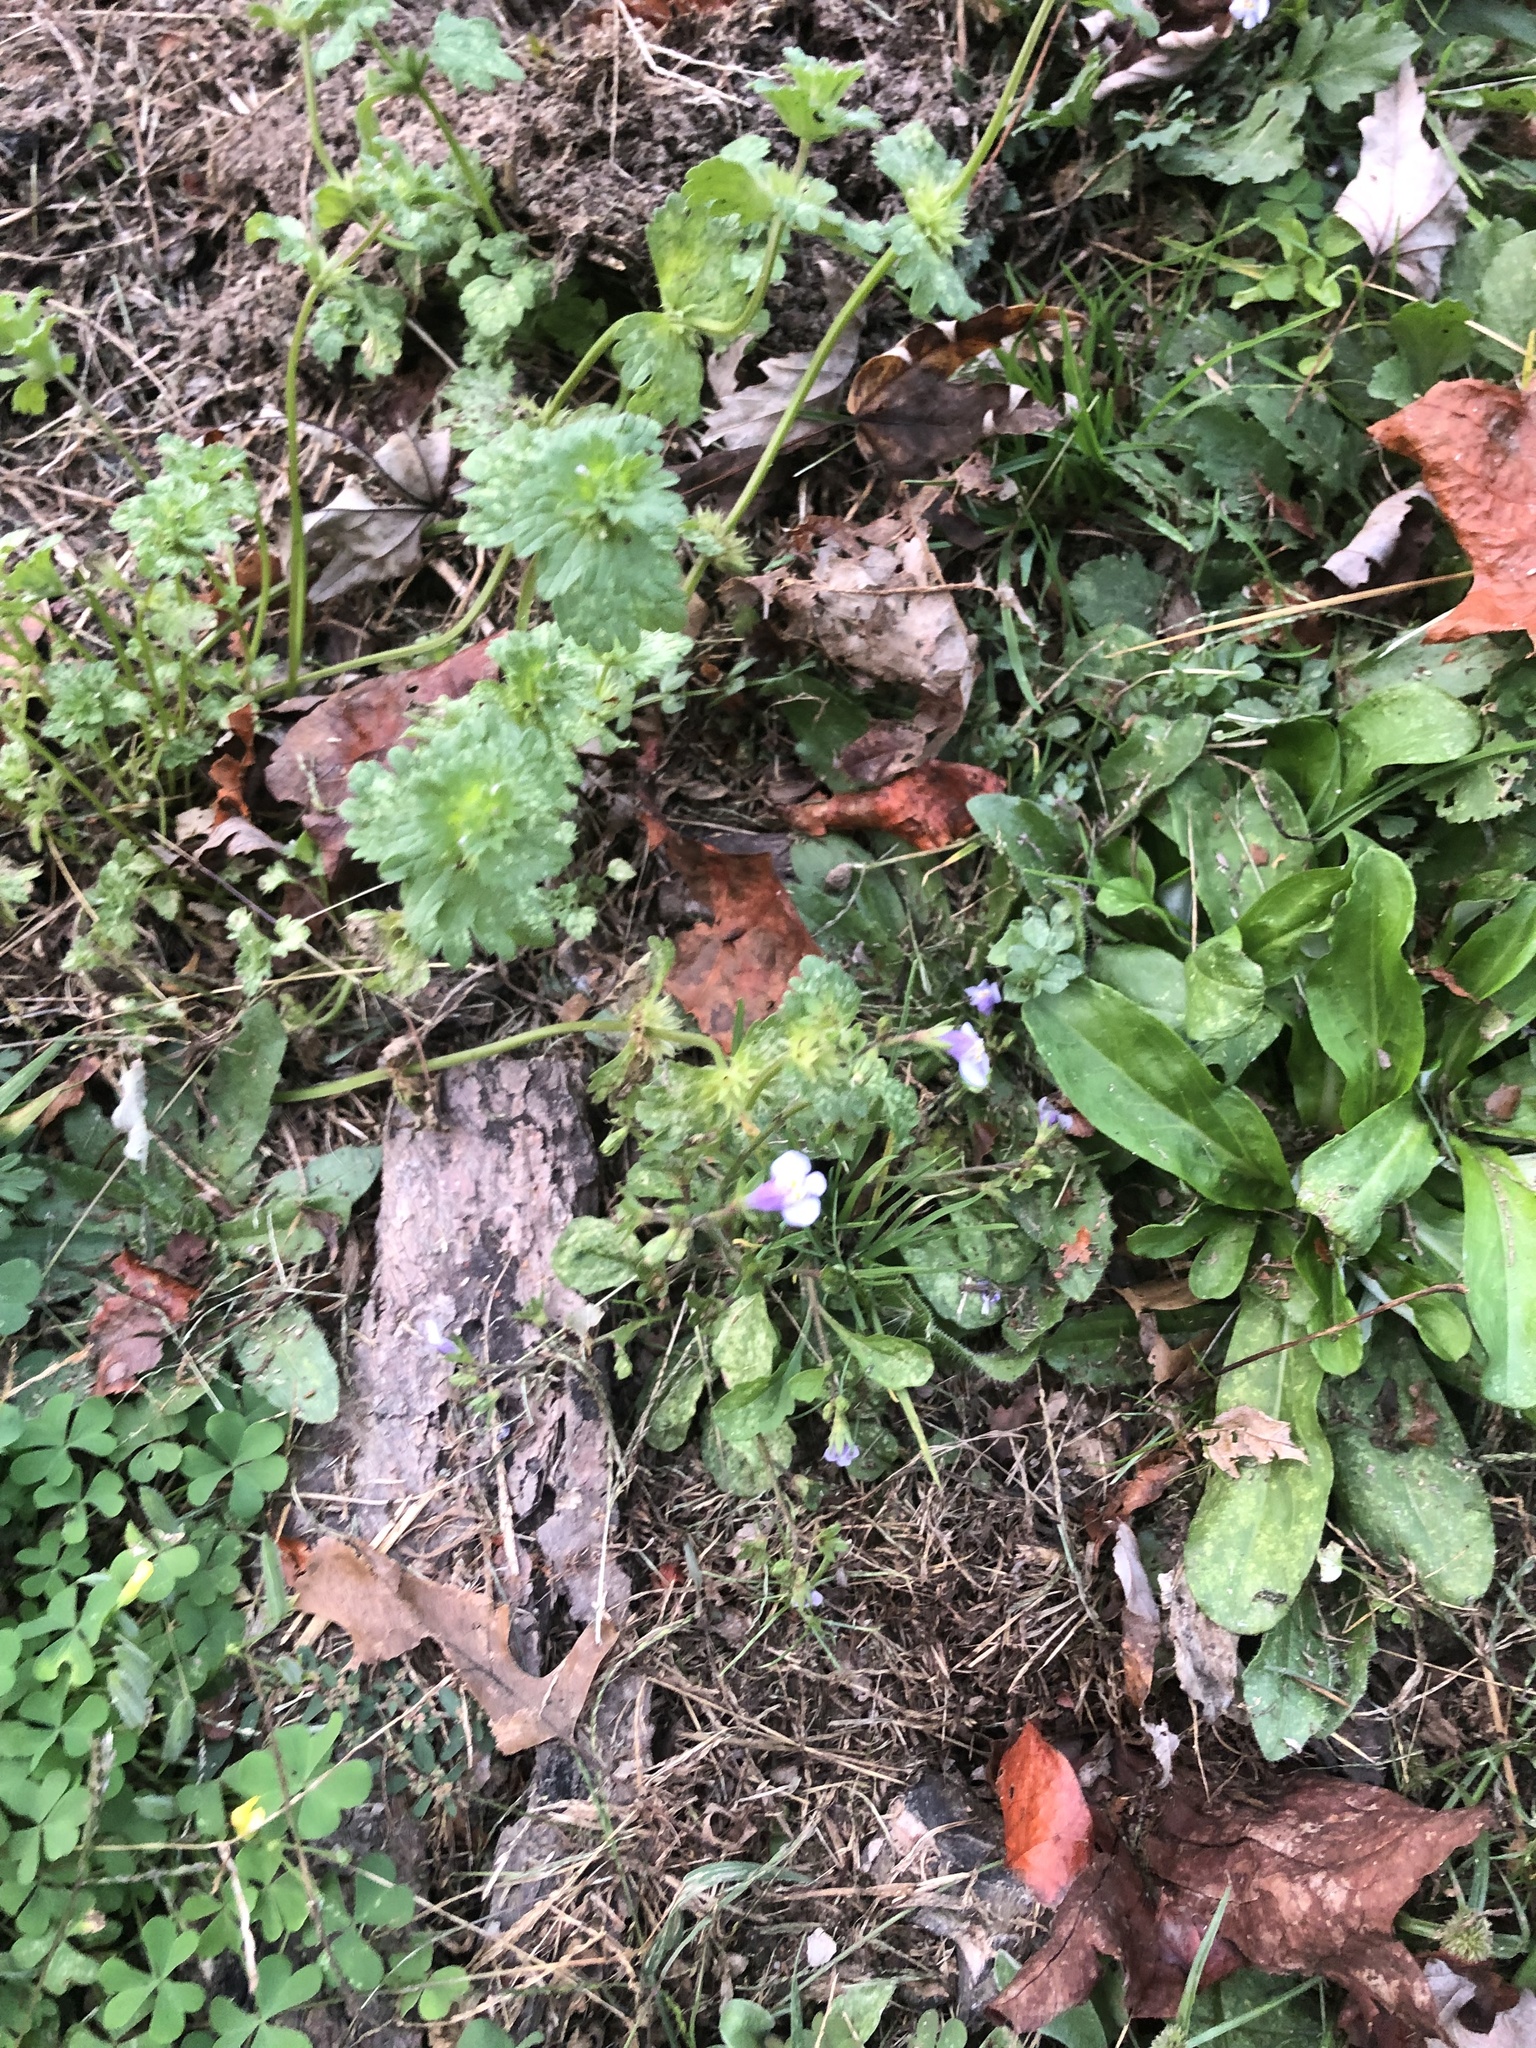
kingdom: Plantae
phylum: Tracheophyta
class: Magnoliopsida
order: Lamiales
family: Mazaceae
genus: Mazus
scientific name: Mazus pumilus
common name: Japanese mazus
